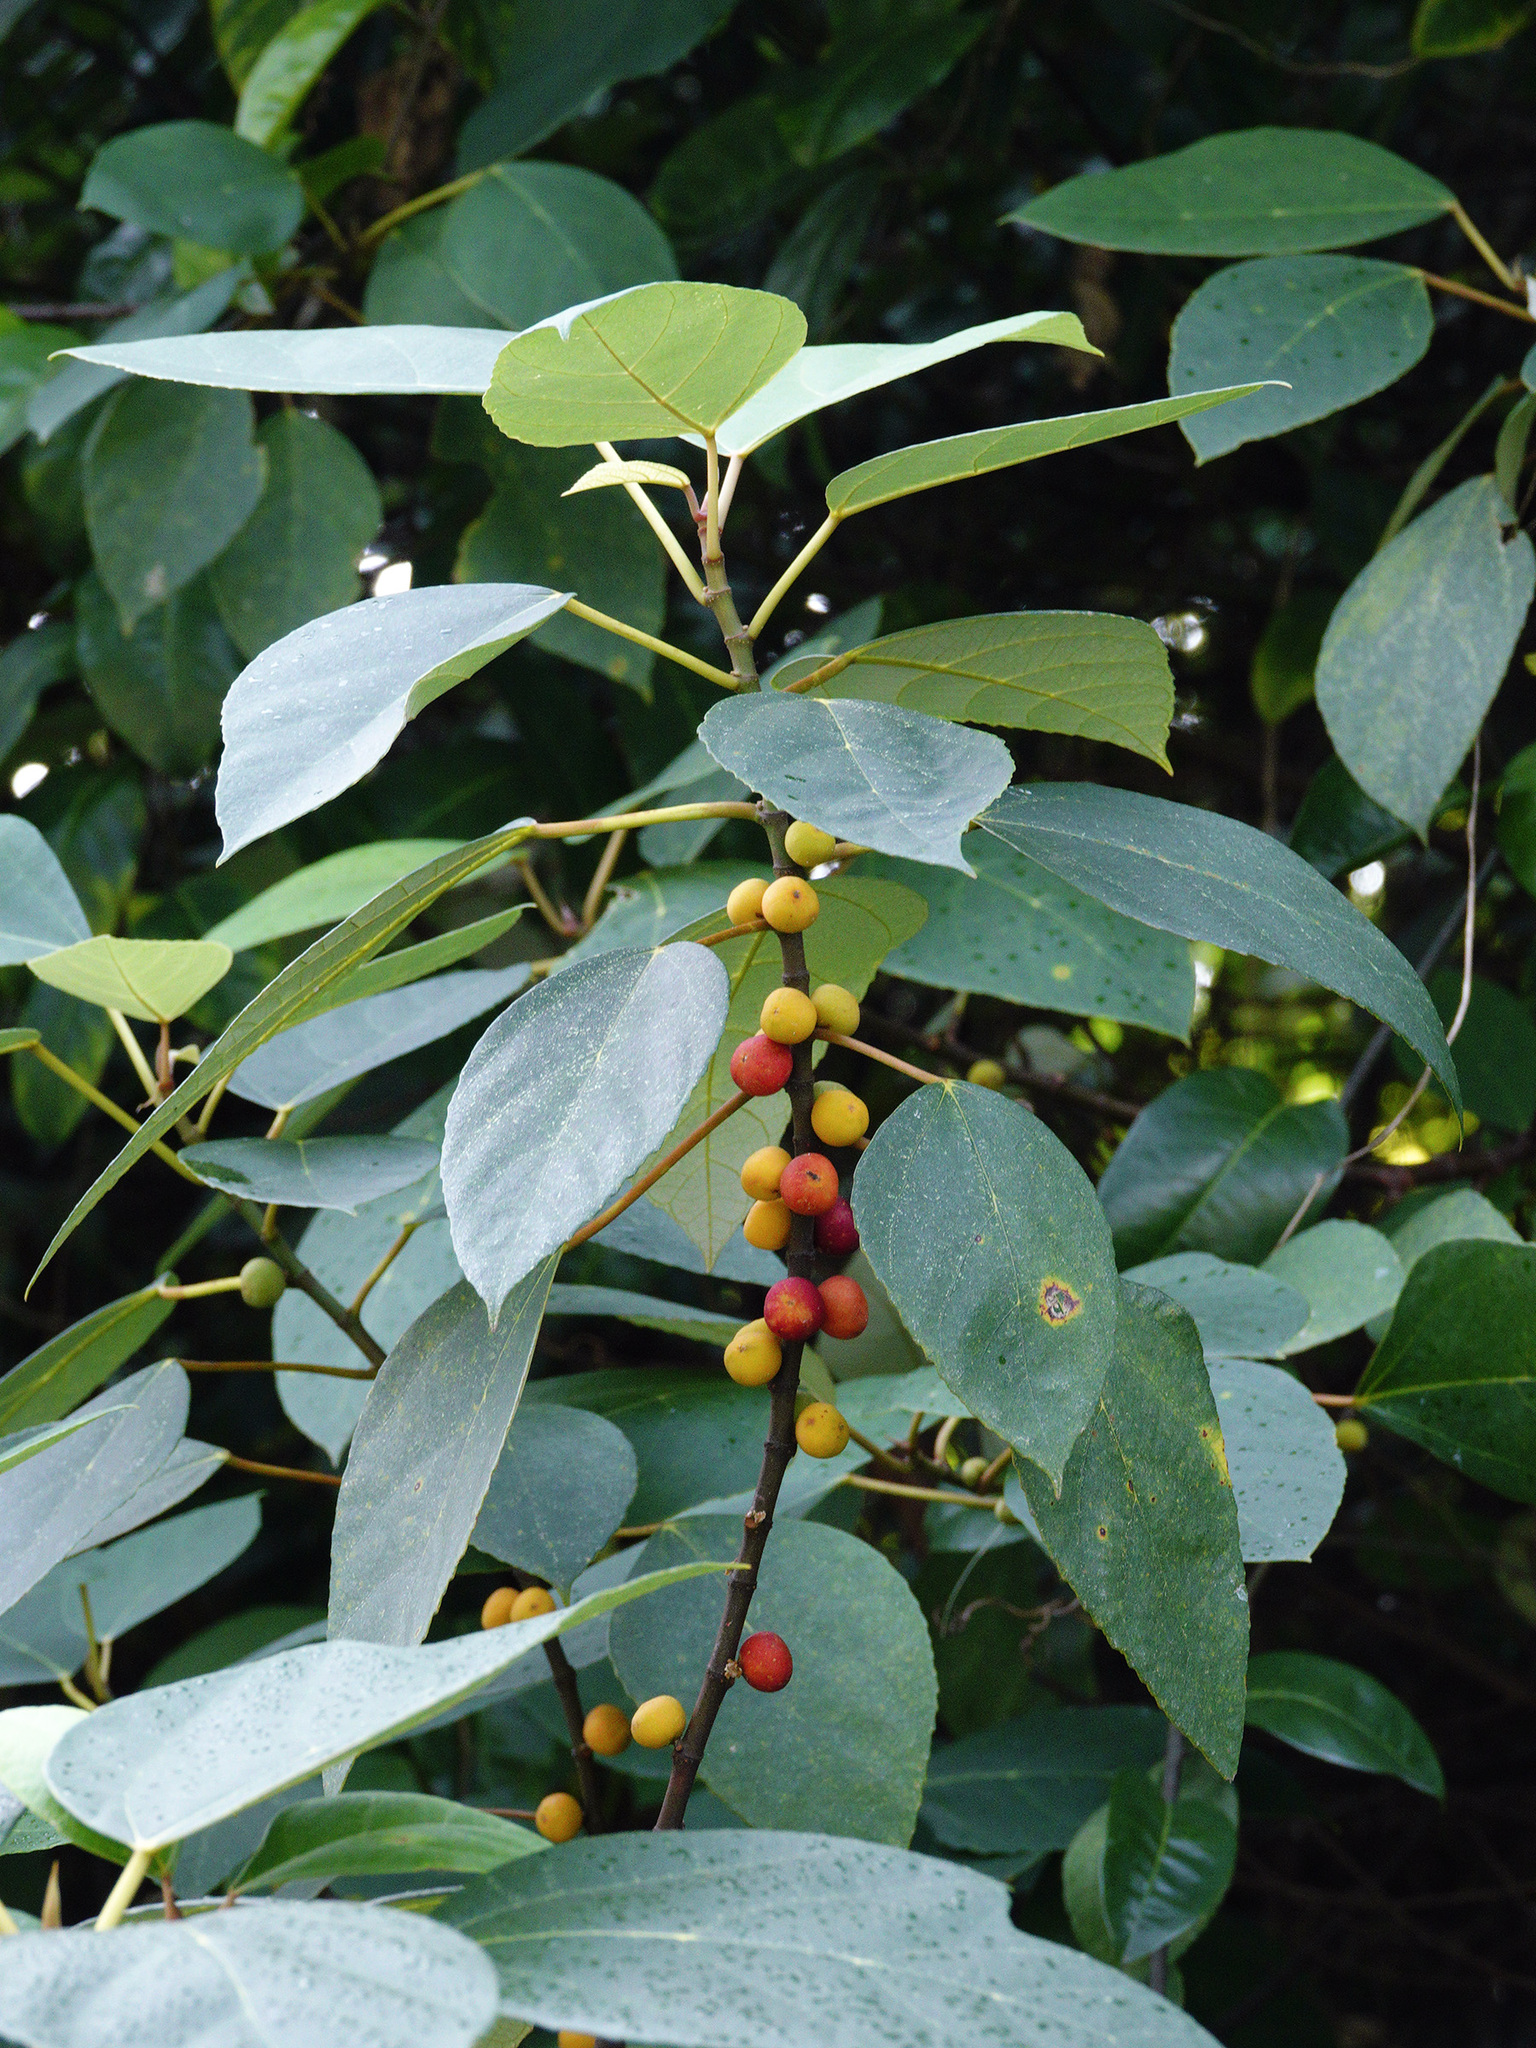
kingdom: Plantae
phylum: Tracheophyta
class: Magnoliopsida
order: Rosales
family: Moraceae
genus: Ficus
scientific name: Ficus grossularioides
